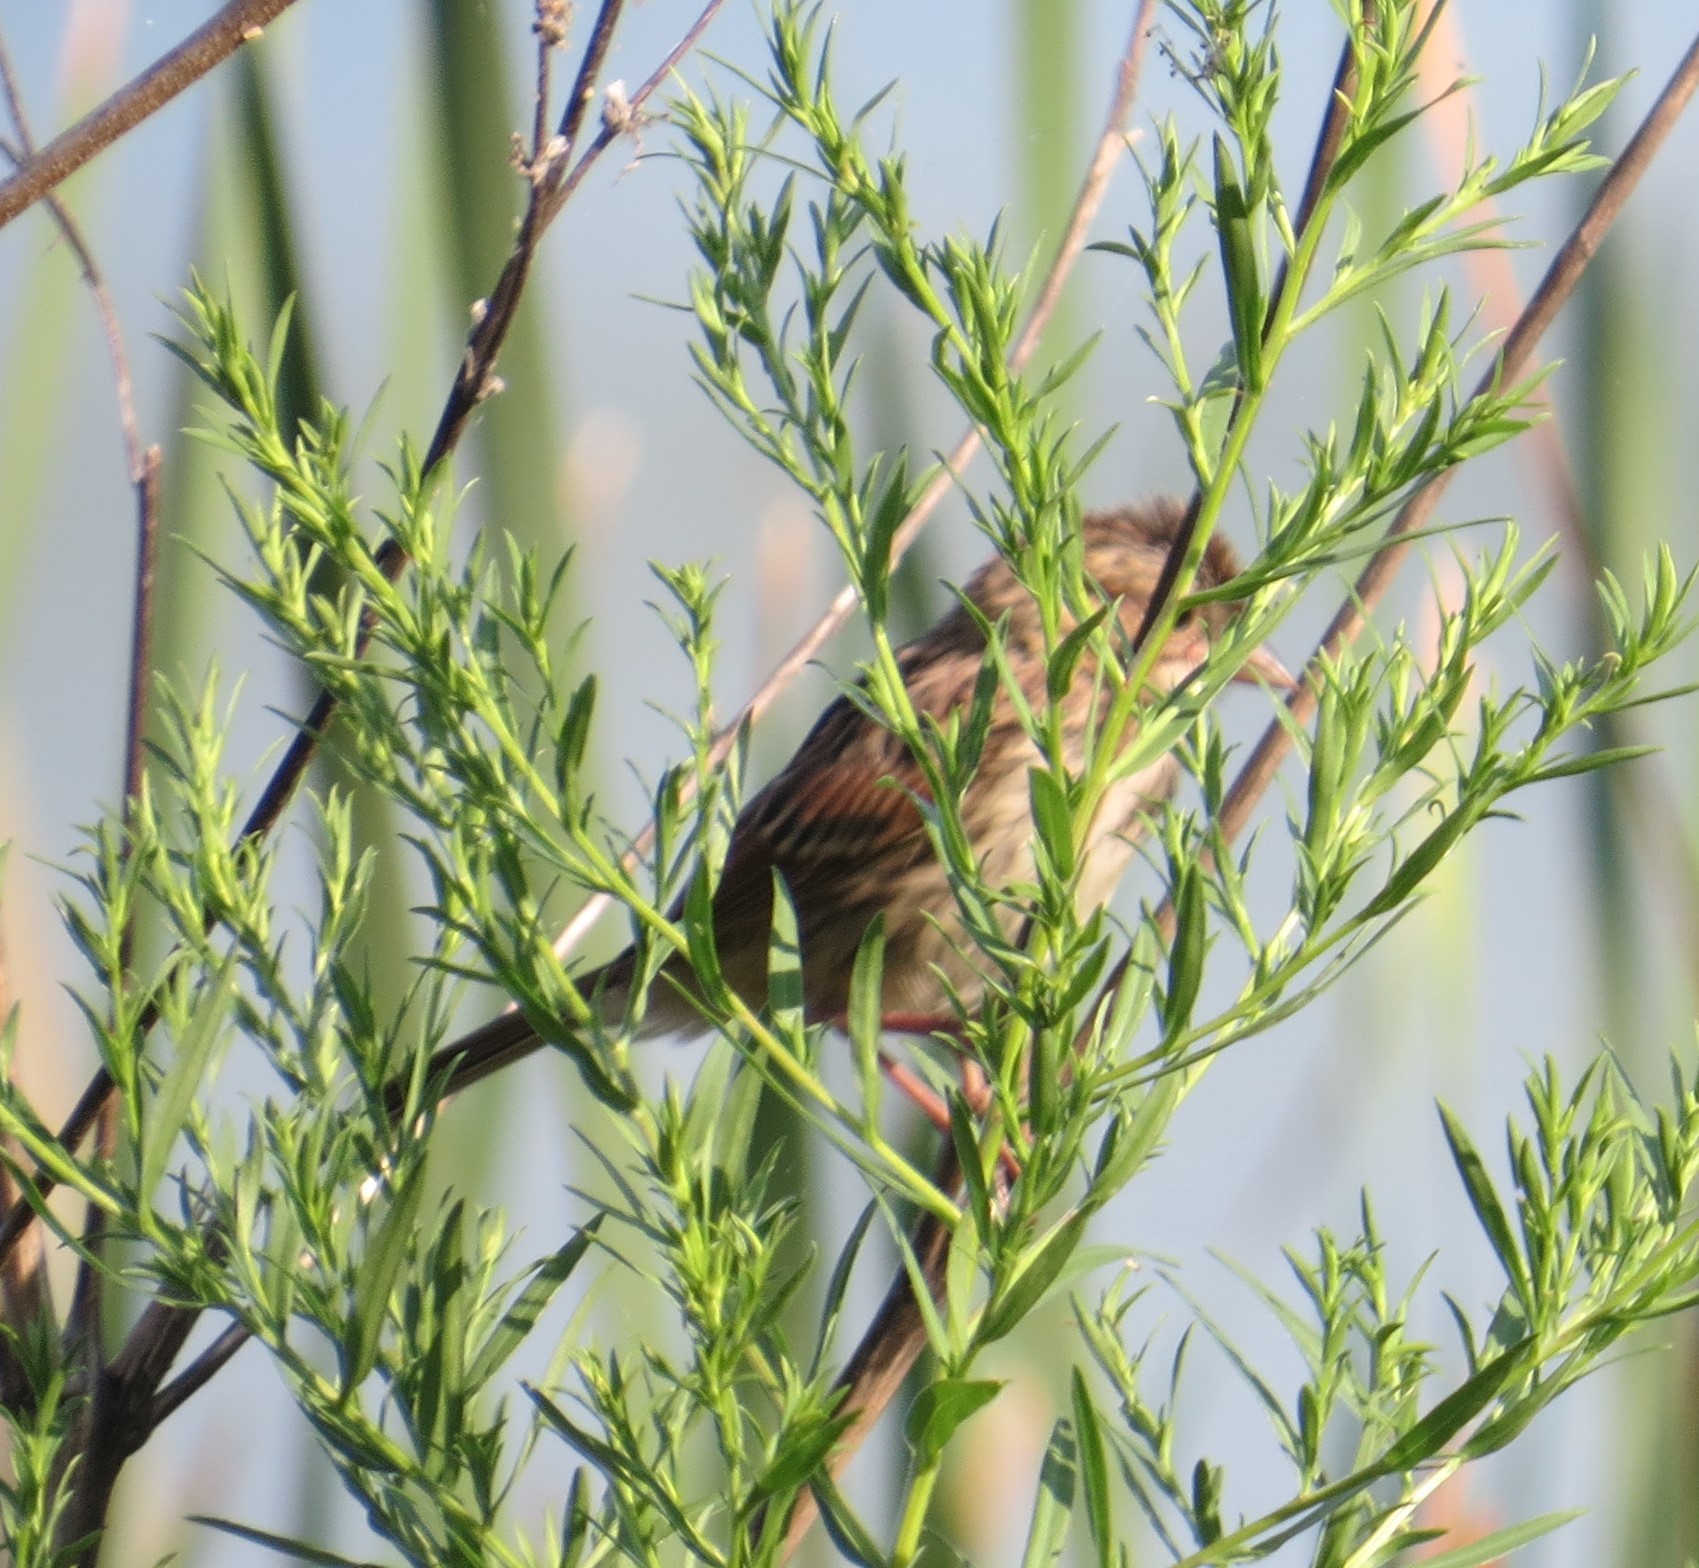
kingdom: Animalia
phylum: Chordata
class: Aves
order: Passeriformes
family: Passerellidae
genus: Melospiza
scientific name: Melospiza melodia
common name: Song sparrow
